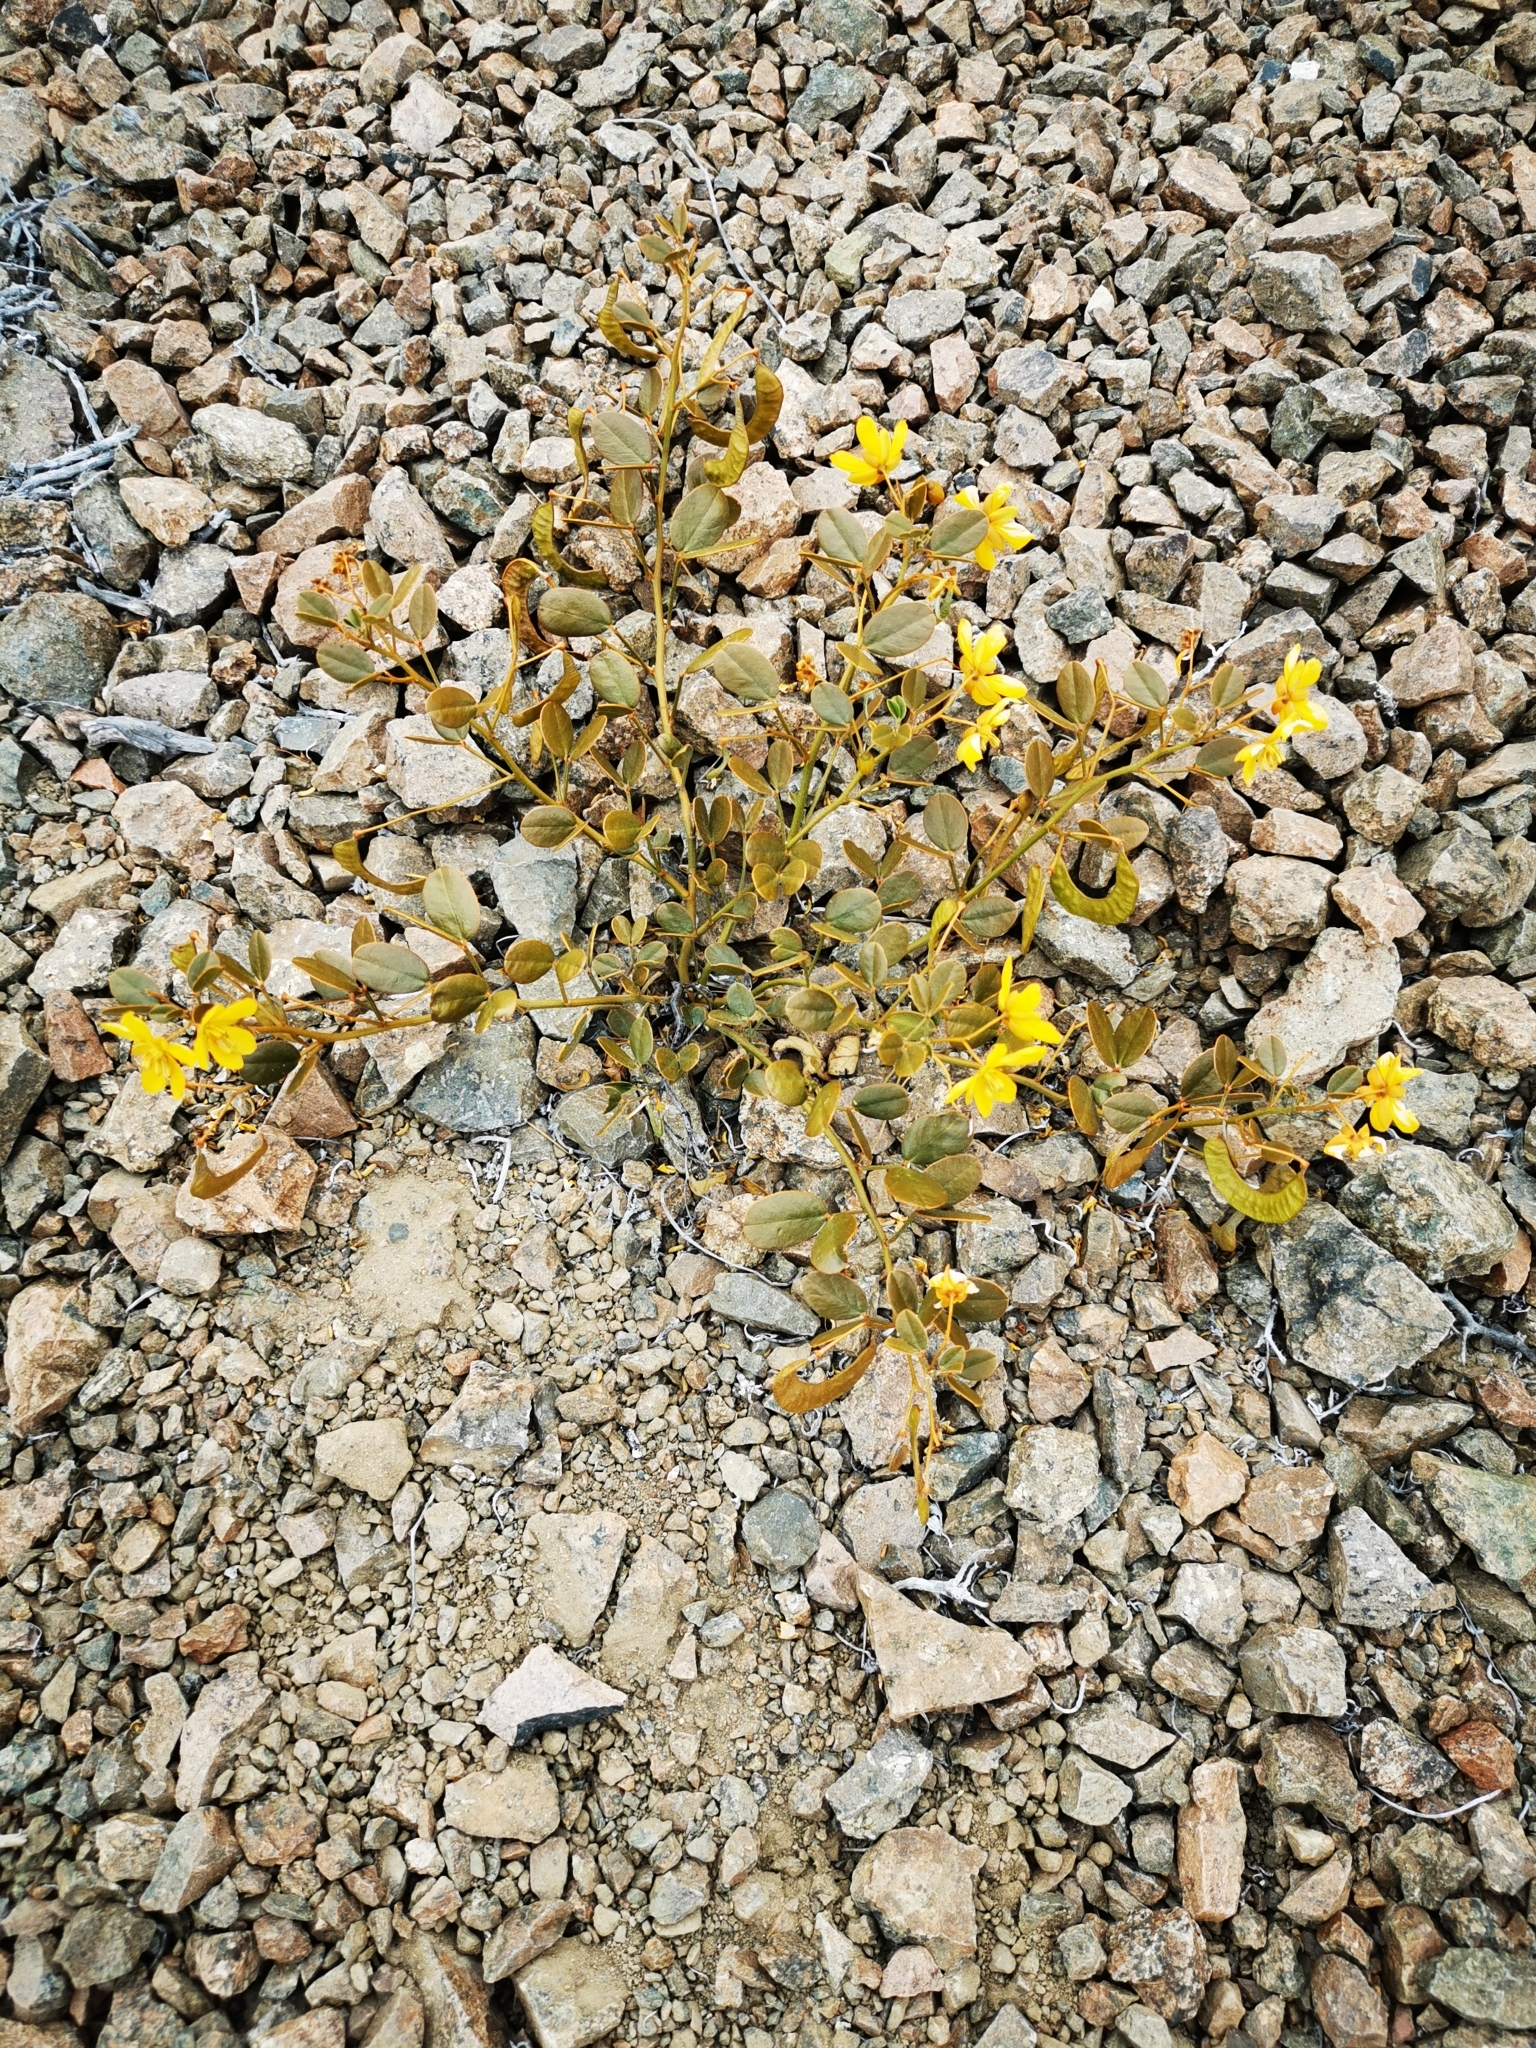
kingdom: Plantae
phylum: Tracheophyta
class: Magnoliopsida
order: Fabales
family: Fabaceae
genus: Senna
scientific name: Senna brongniartii
